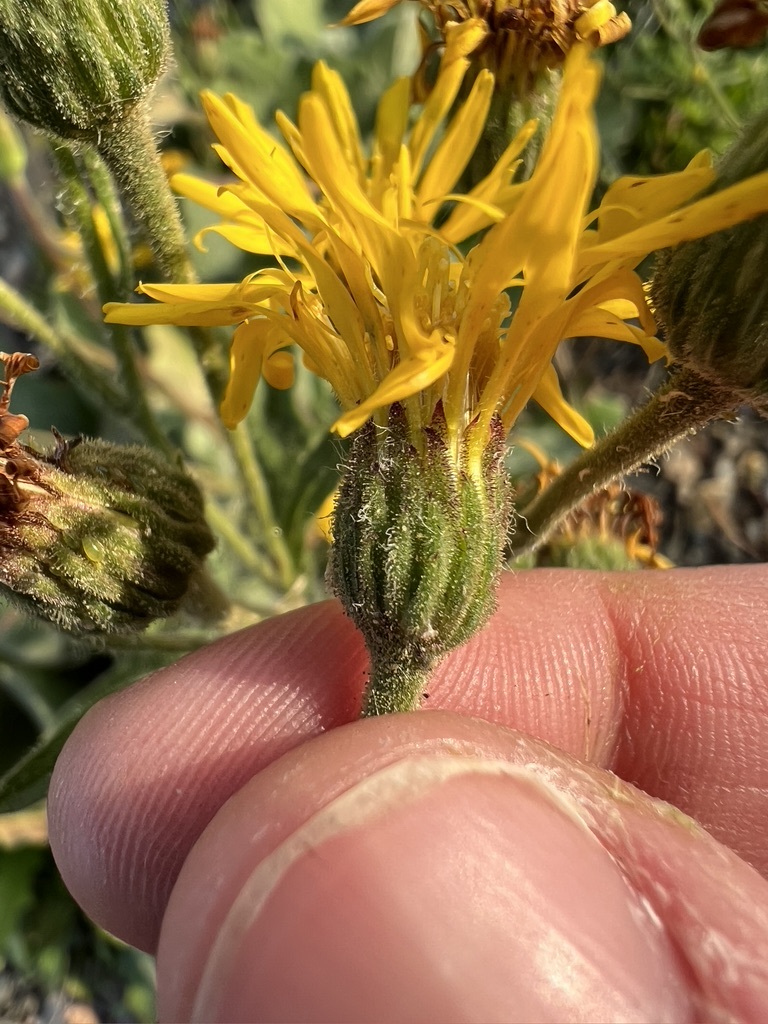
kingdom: Plantae
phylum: Tracheophyta
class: Magnoliopsida
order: Asterales
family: Asteraceae
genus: Heterotheca
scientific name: Heterotheca grandiflora
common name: Telegraphweed
